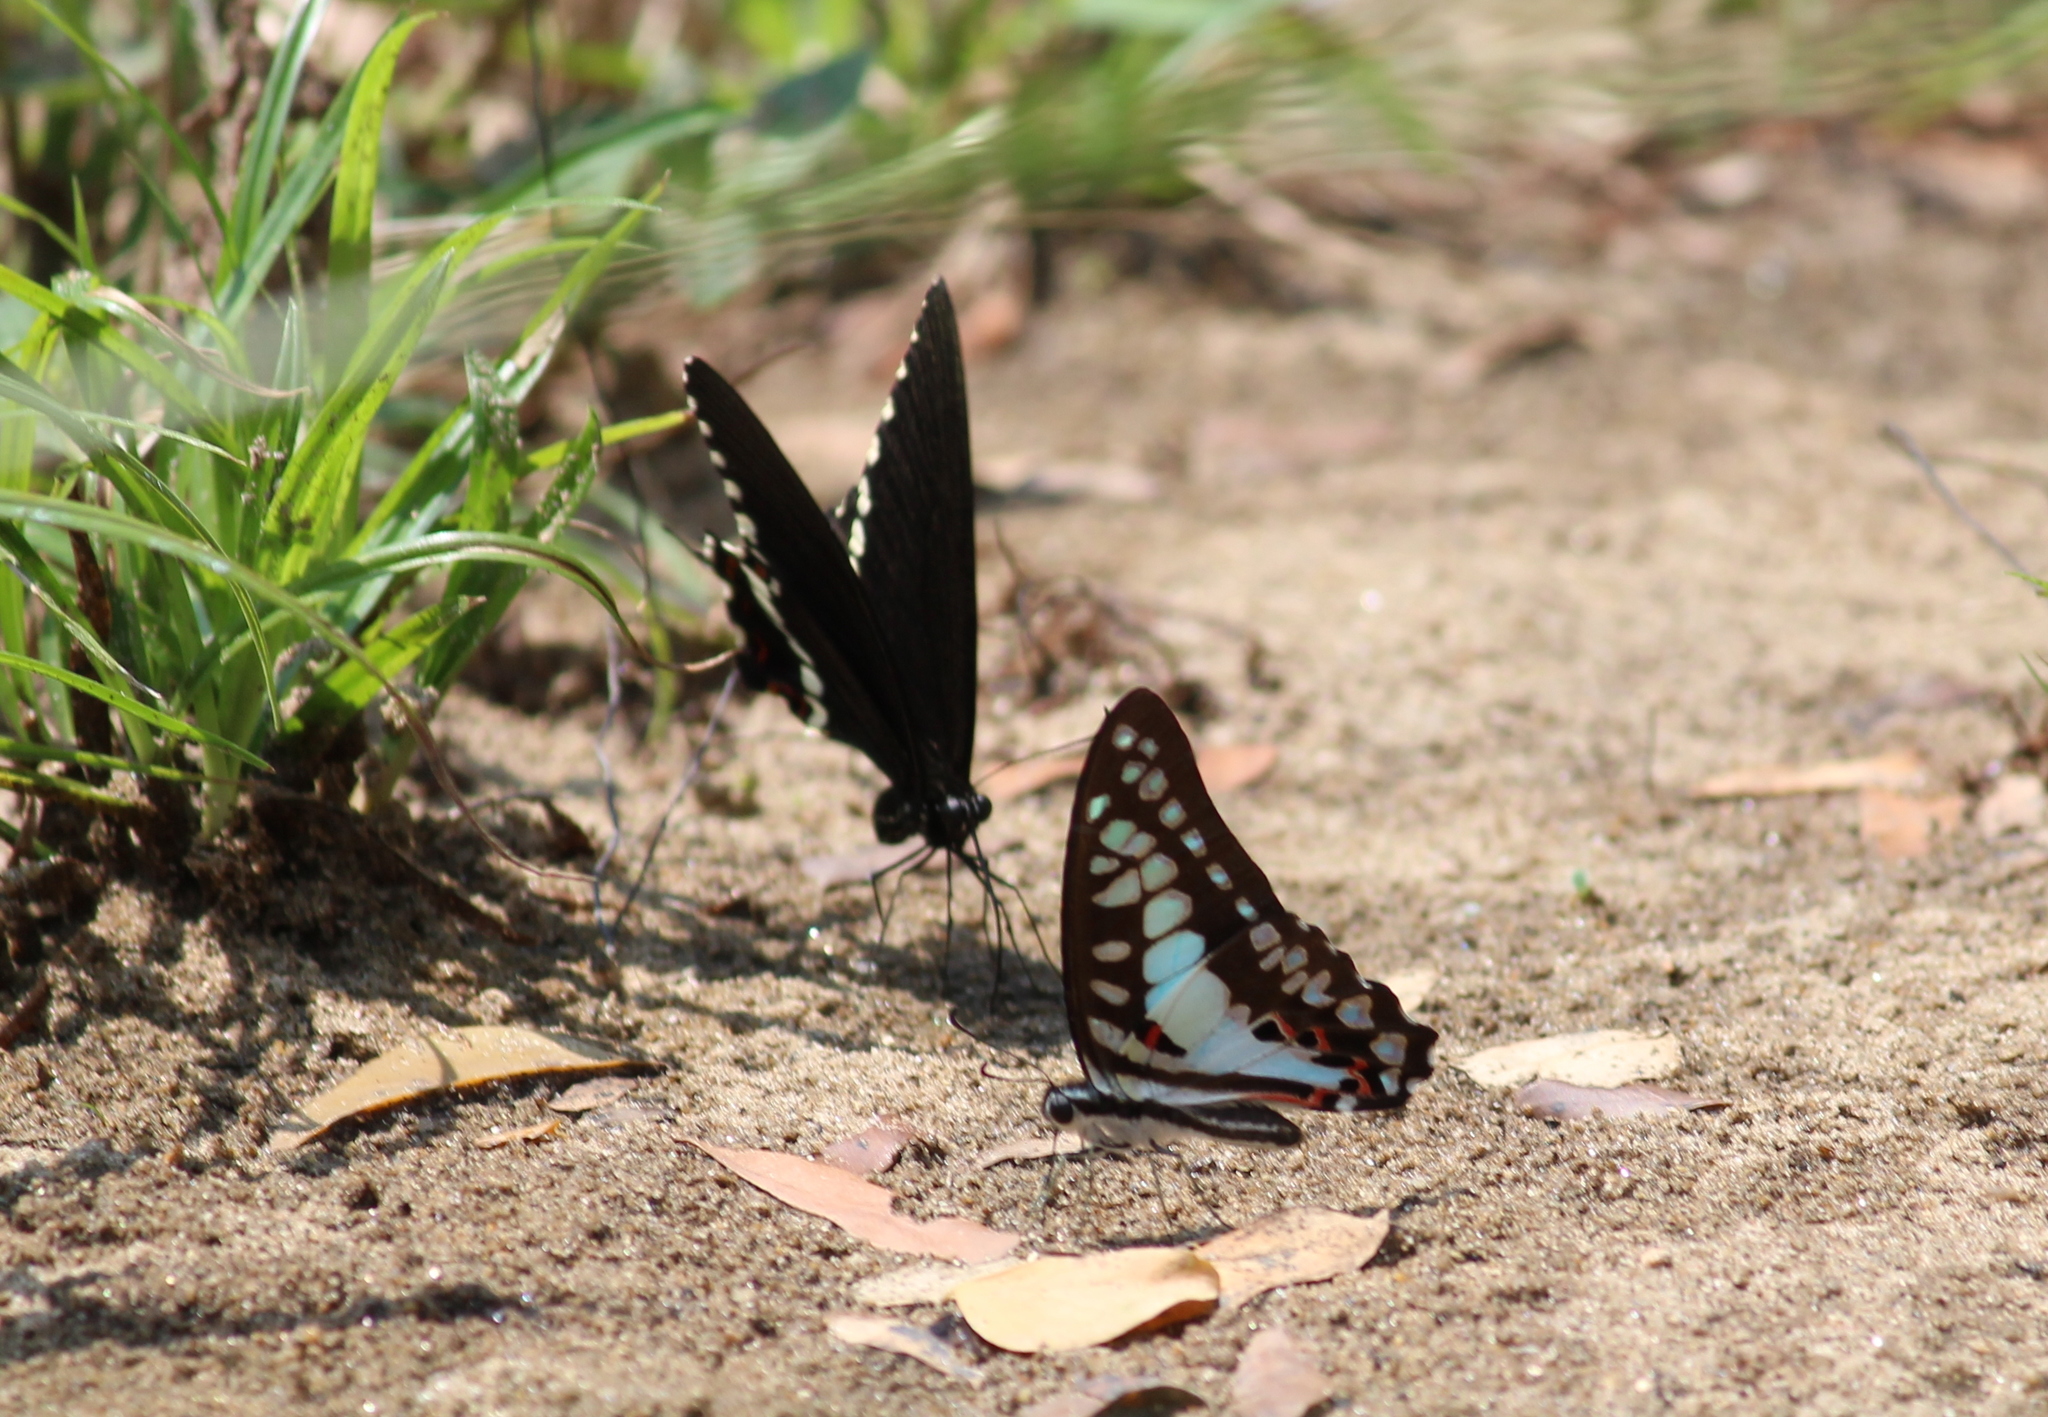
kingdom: Animalia
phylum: Arthropoda
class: Insecta
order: Lepidoptera
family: Papilionidae
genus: Graphium
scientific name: Graphium doson
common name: Common jay
